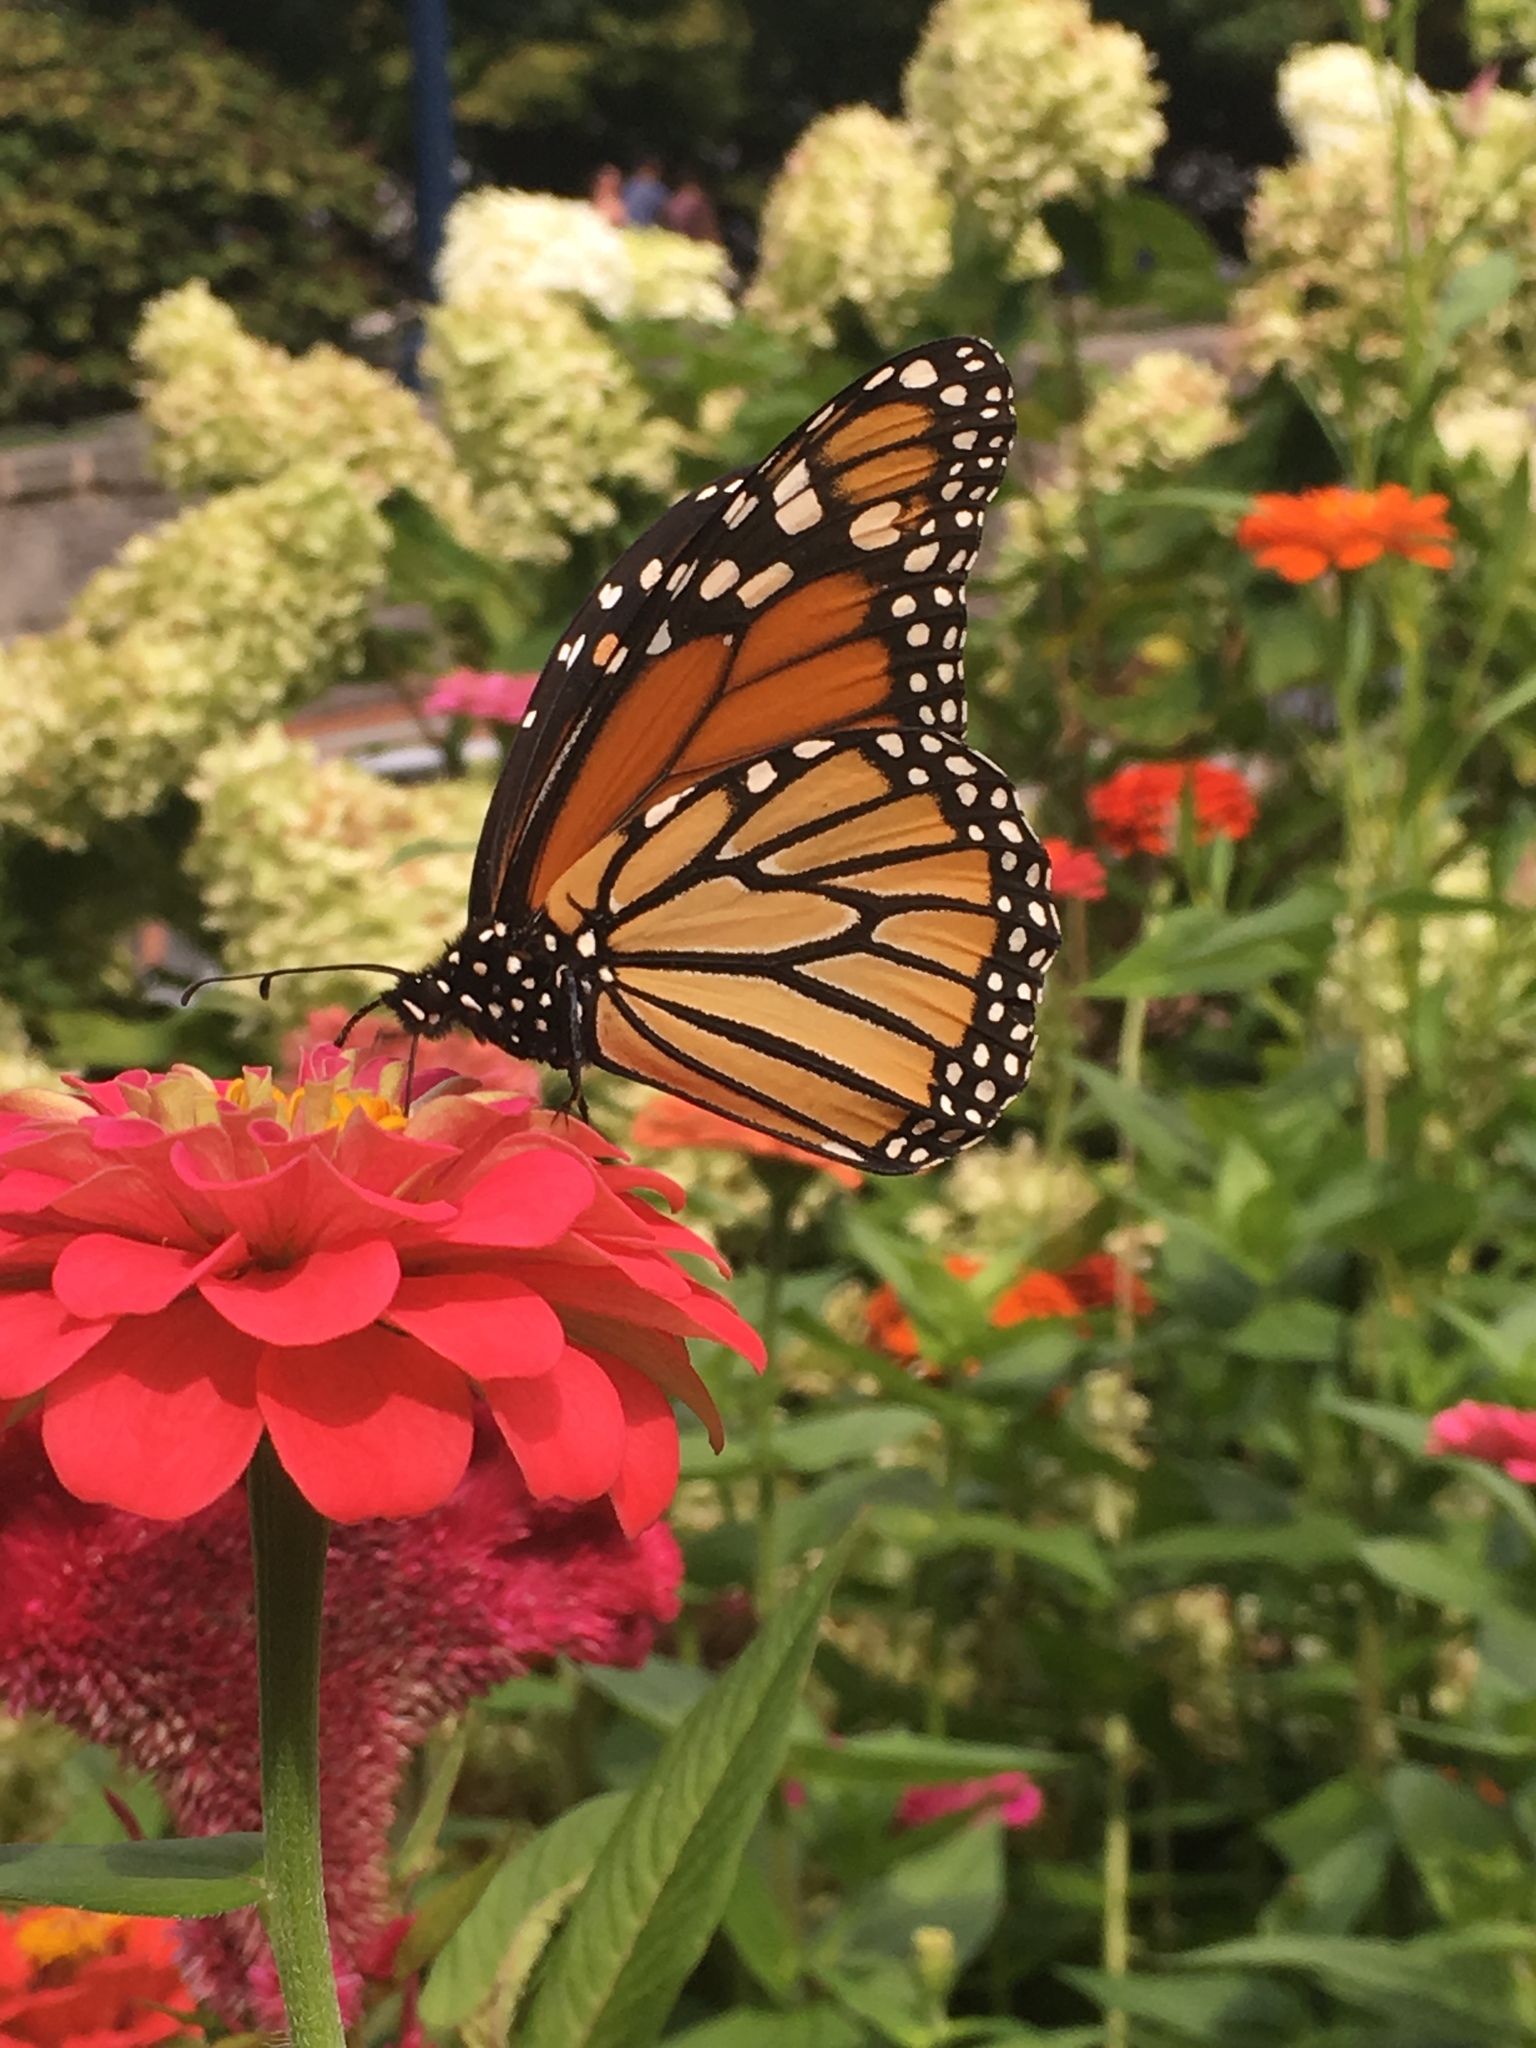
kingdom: Animalia
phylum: Arthropoda
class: Insecta
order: Lepidoptera
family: Nymphalidae
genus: Danaus
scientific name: Danaus plexippus
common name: Monarch
